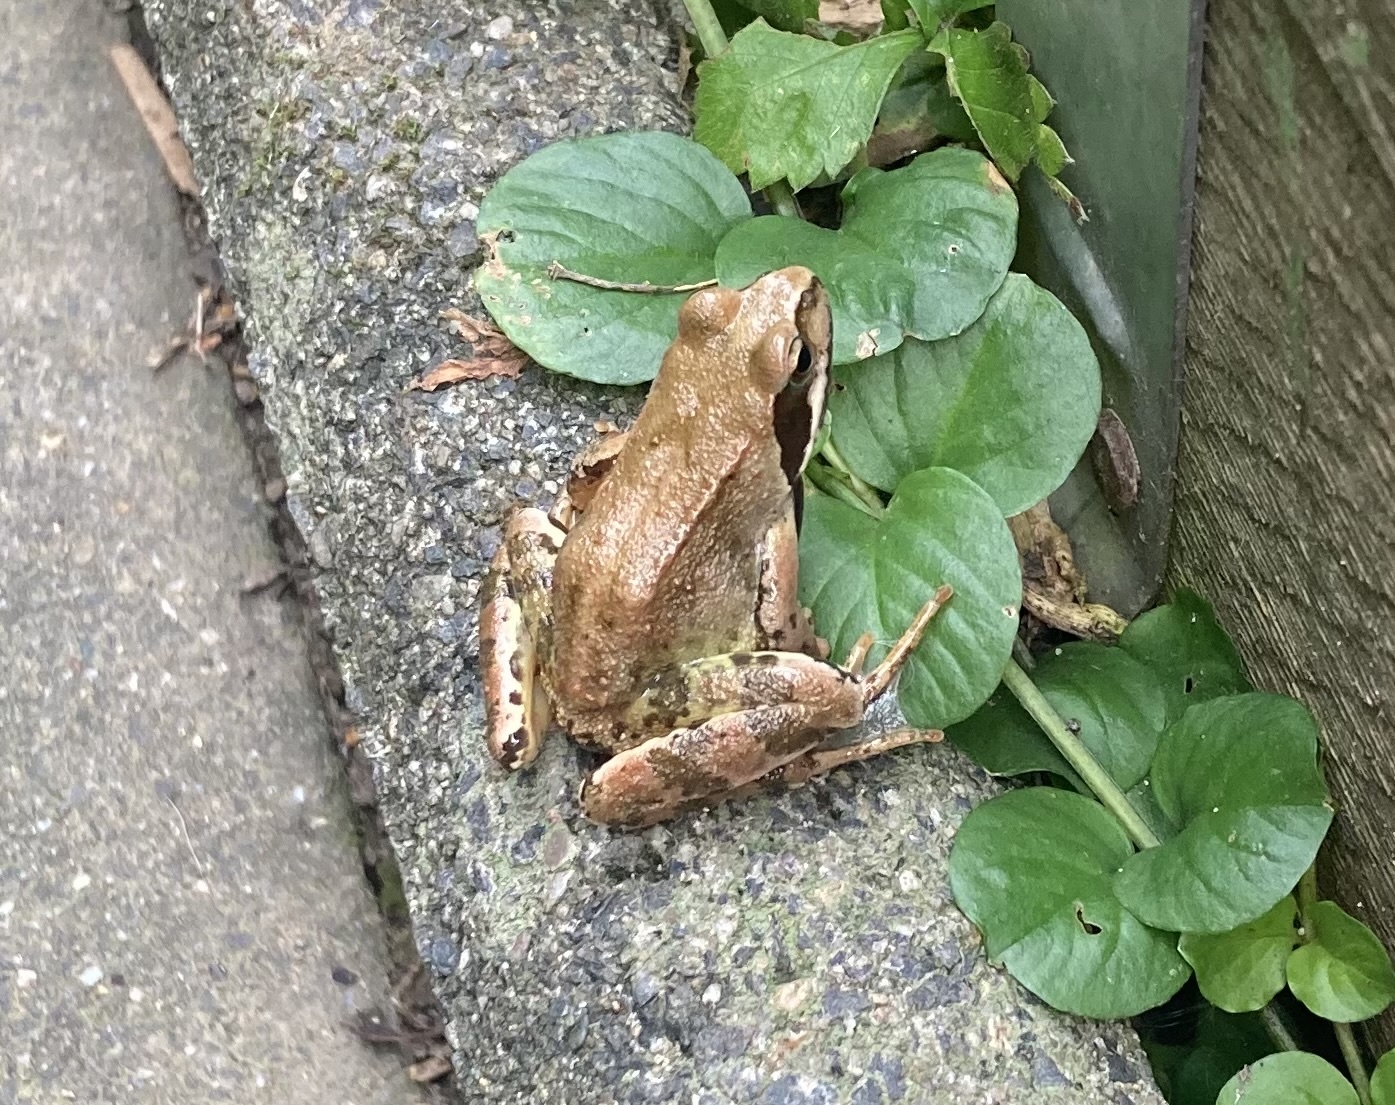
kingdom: Animalia
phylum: Chordata
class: Amphibia
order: Anura
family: Ranidae
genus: Rana
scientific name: Rana temporaria
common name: Common frog
